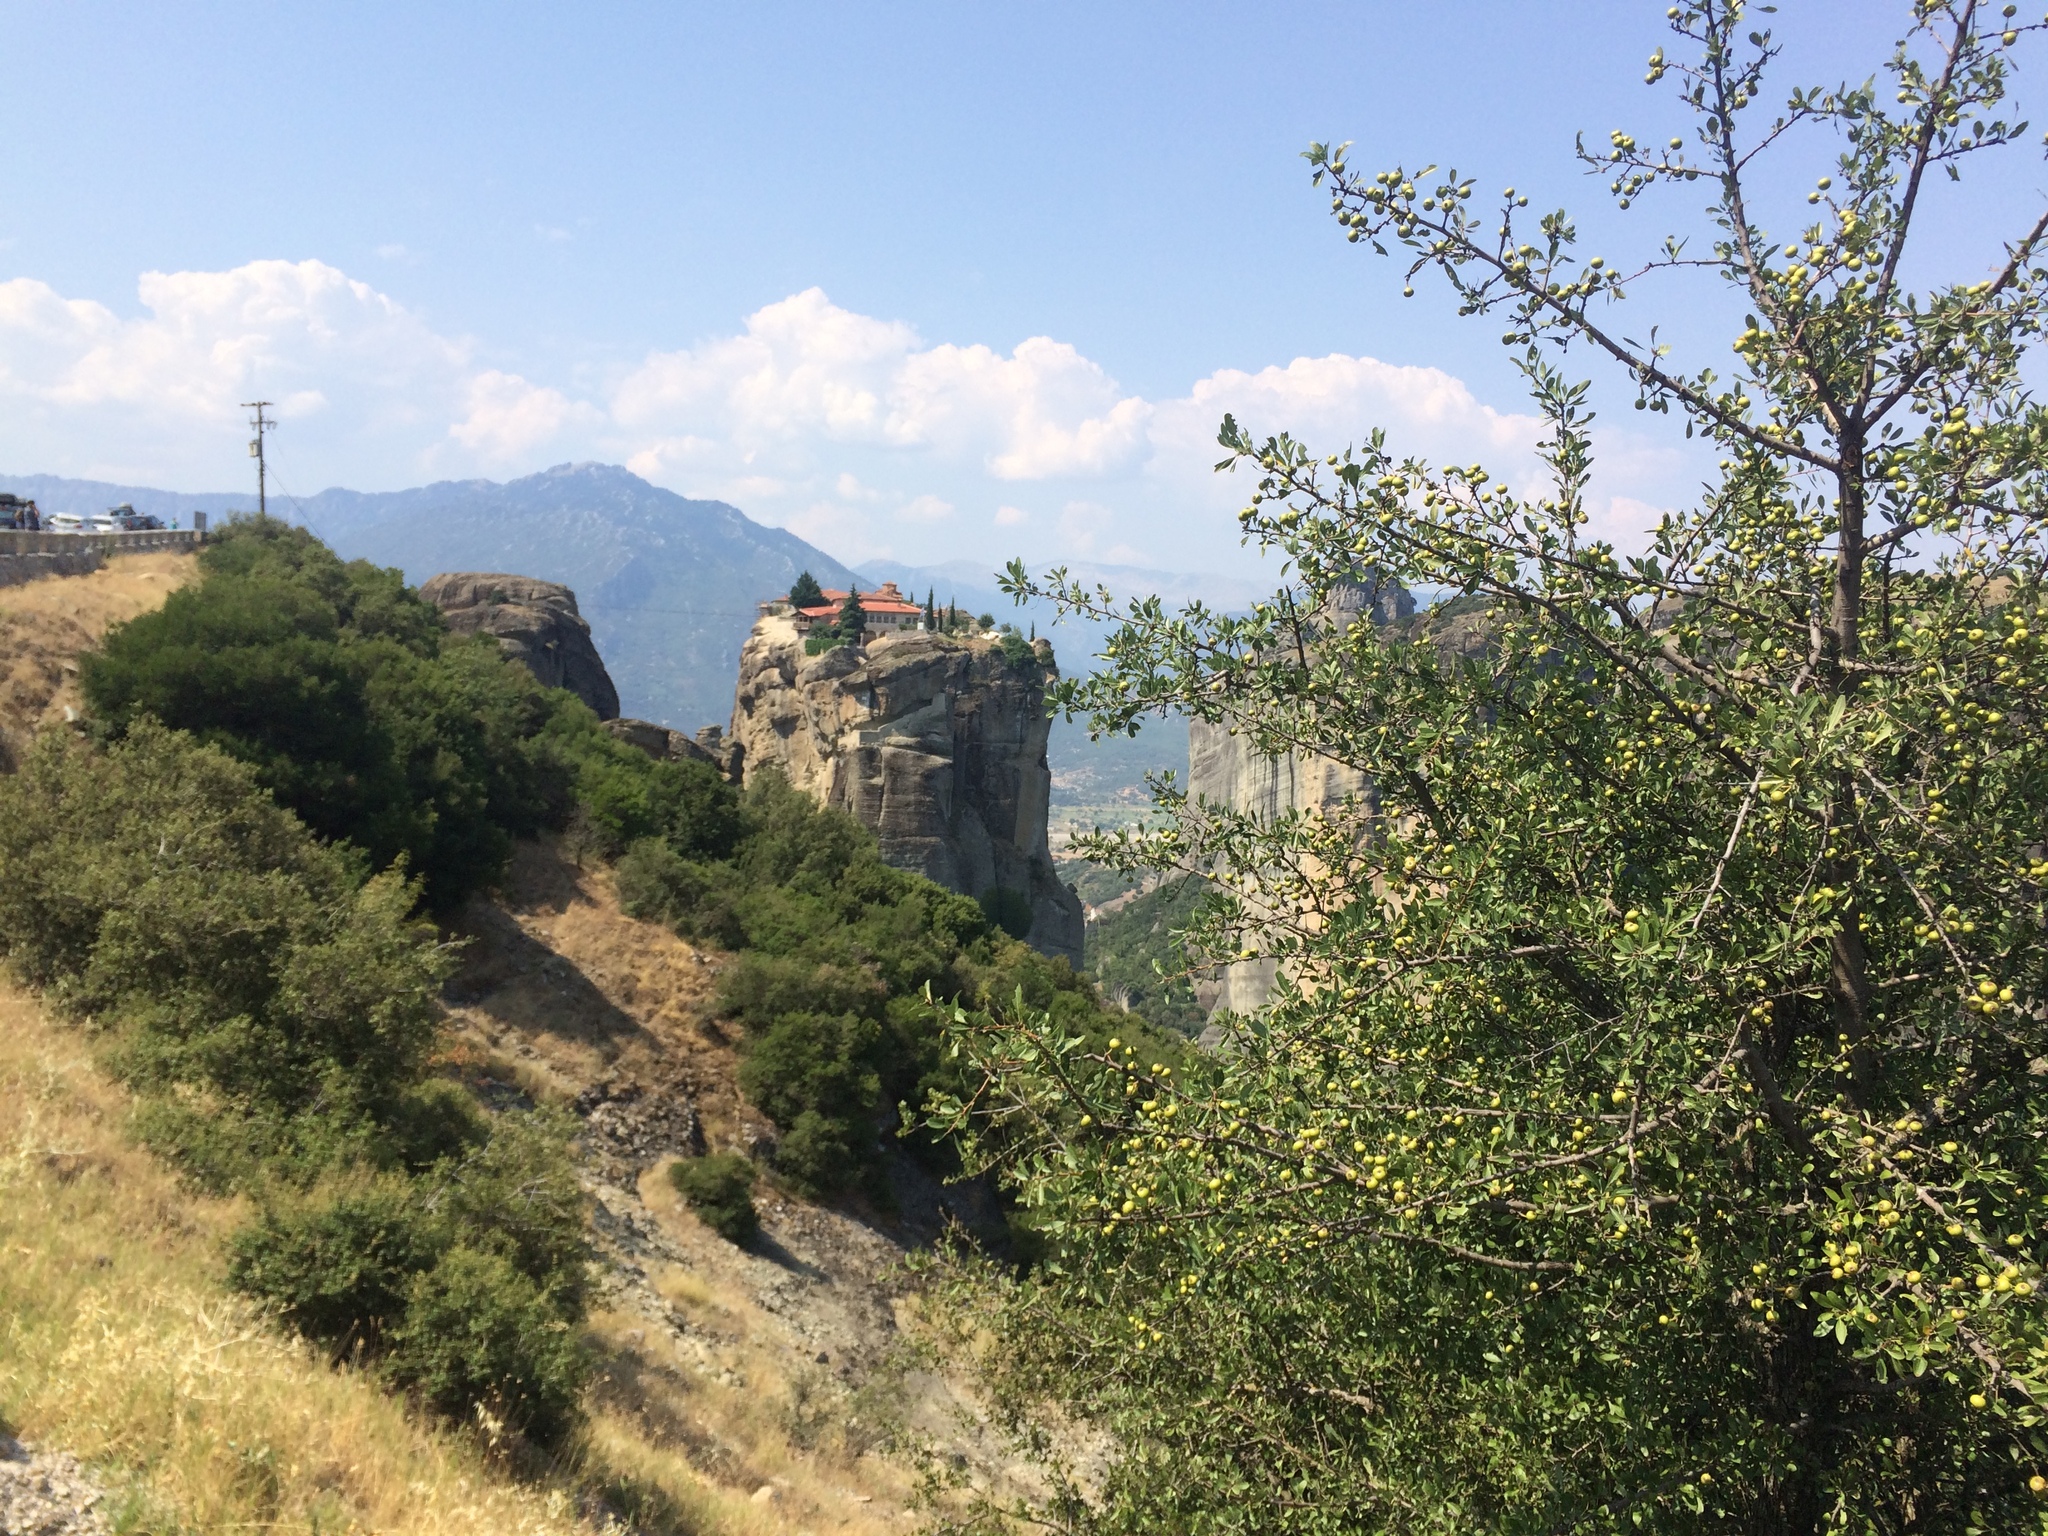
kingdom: Plantae
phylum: Tracheophyta
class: Magnoliopsida
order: Rosales
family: Rosaceae
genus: Pyrus
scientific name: Pyrus spinosa
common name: Almond-leaf pear
